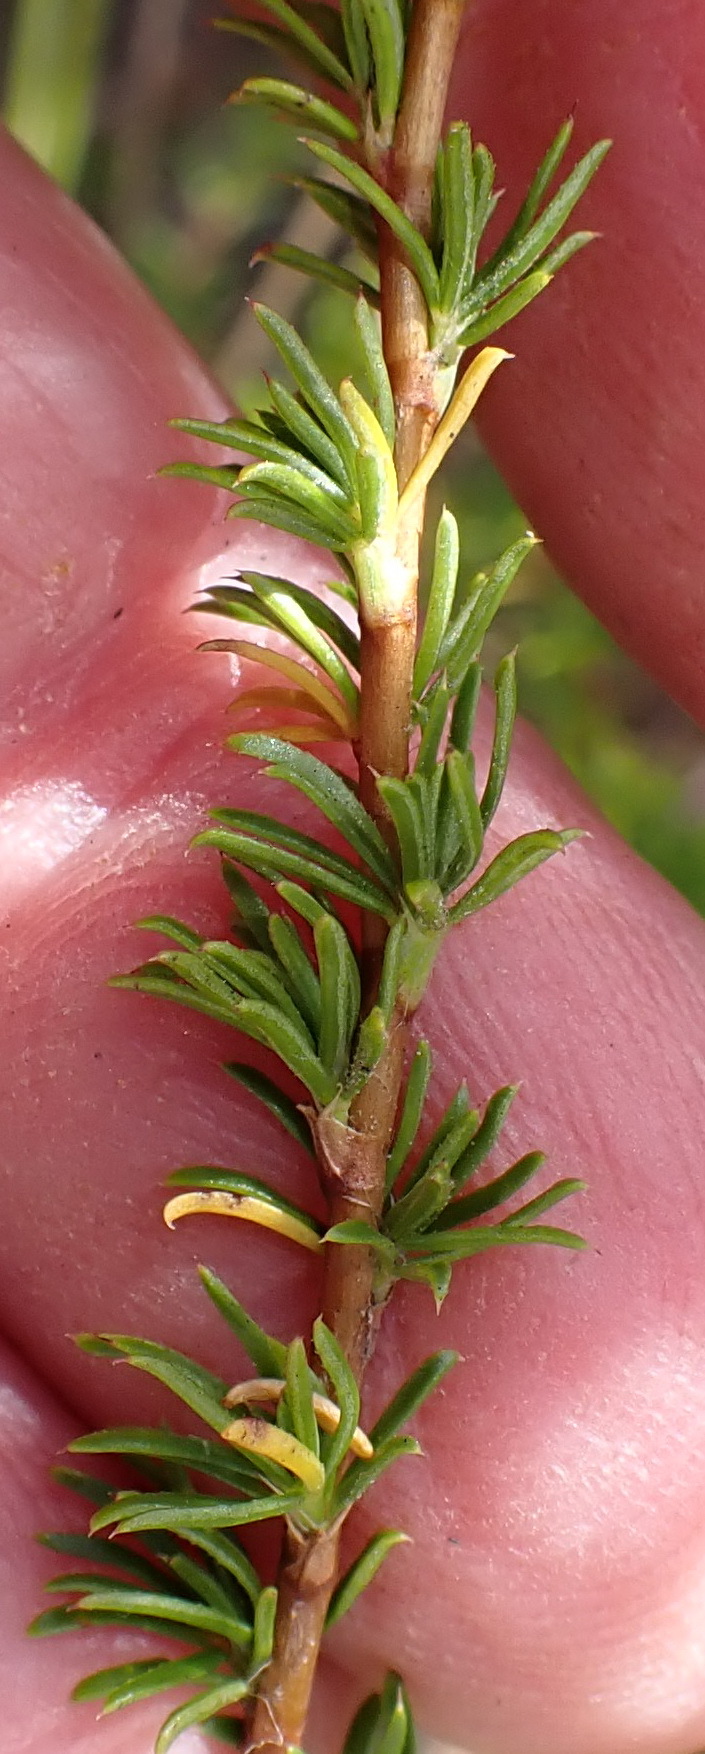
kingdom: Plantae
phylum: Tracheophyta
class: Magnoliopsida
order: Rosales
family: Rosaceae
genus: Cliffortia
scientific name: Cliffortia filifolia
